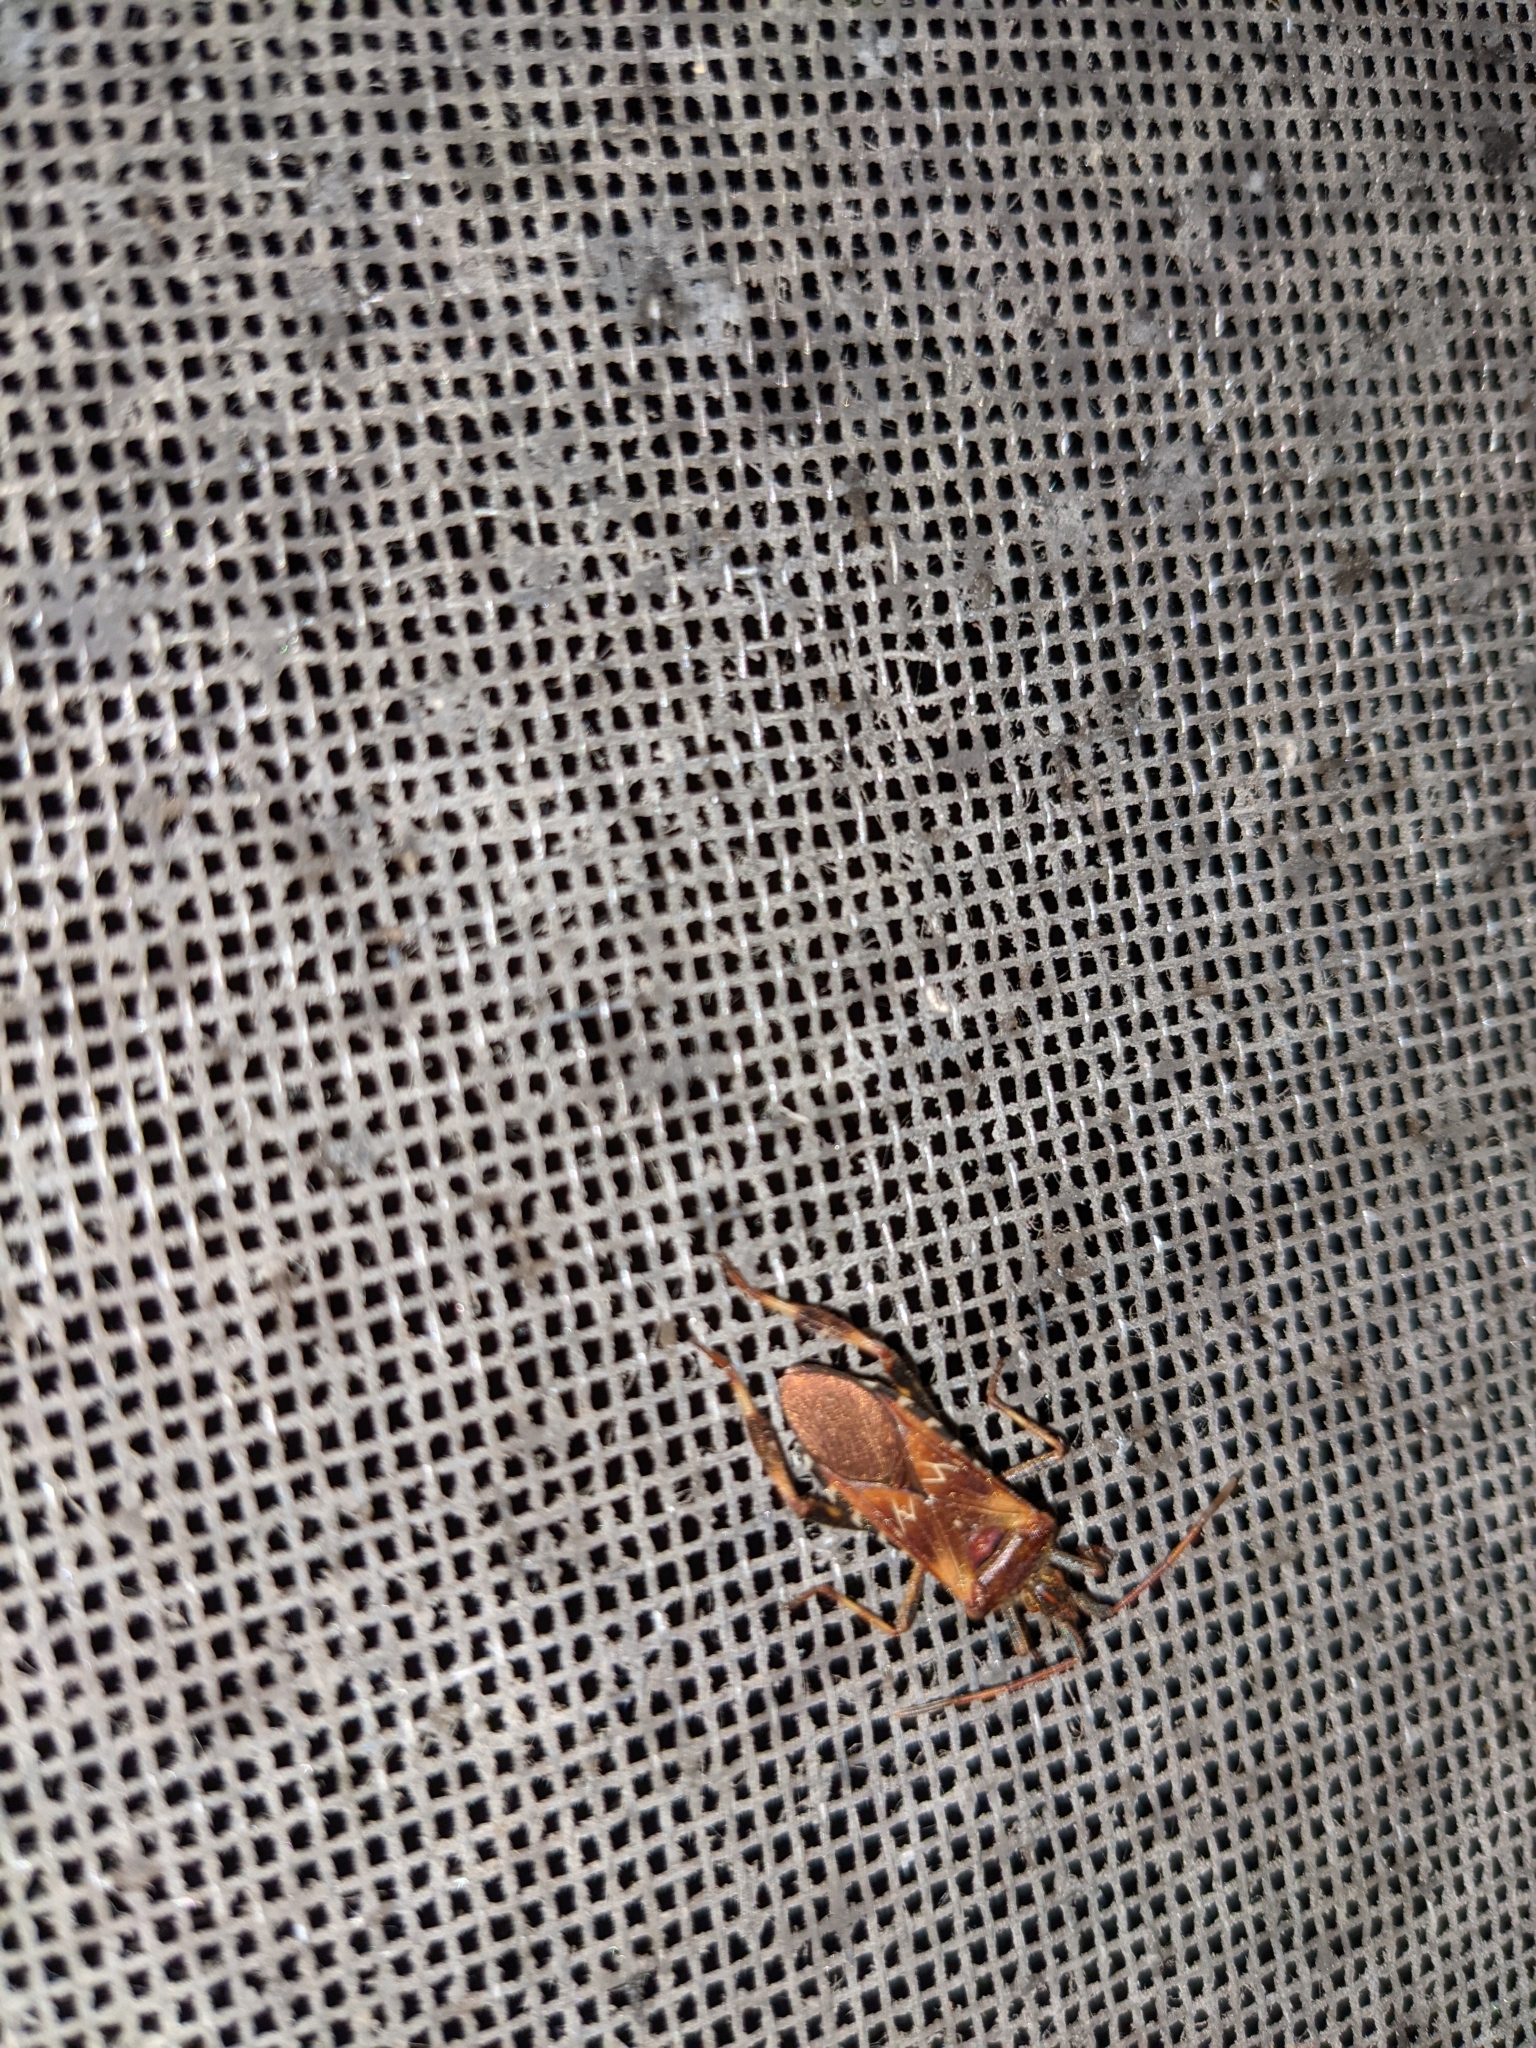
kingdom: Animalia
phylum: Arthropoda
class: Insecta
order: Hemiptera
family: Coreidae
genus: Leptoglossus
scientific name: Leptoglossus occidentalis
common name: Western conifer-seed bug
